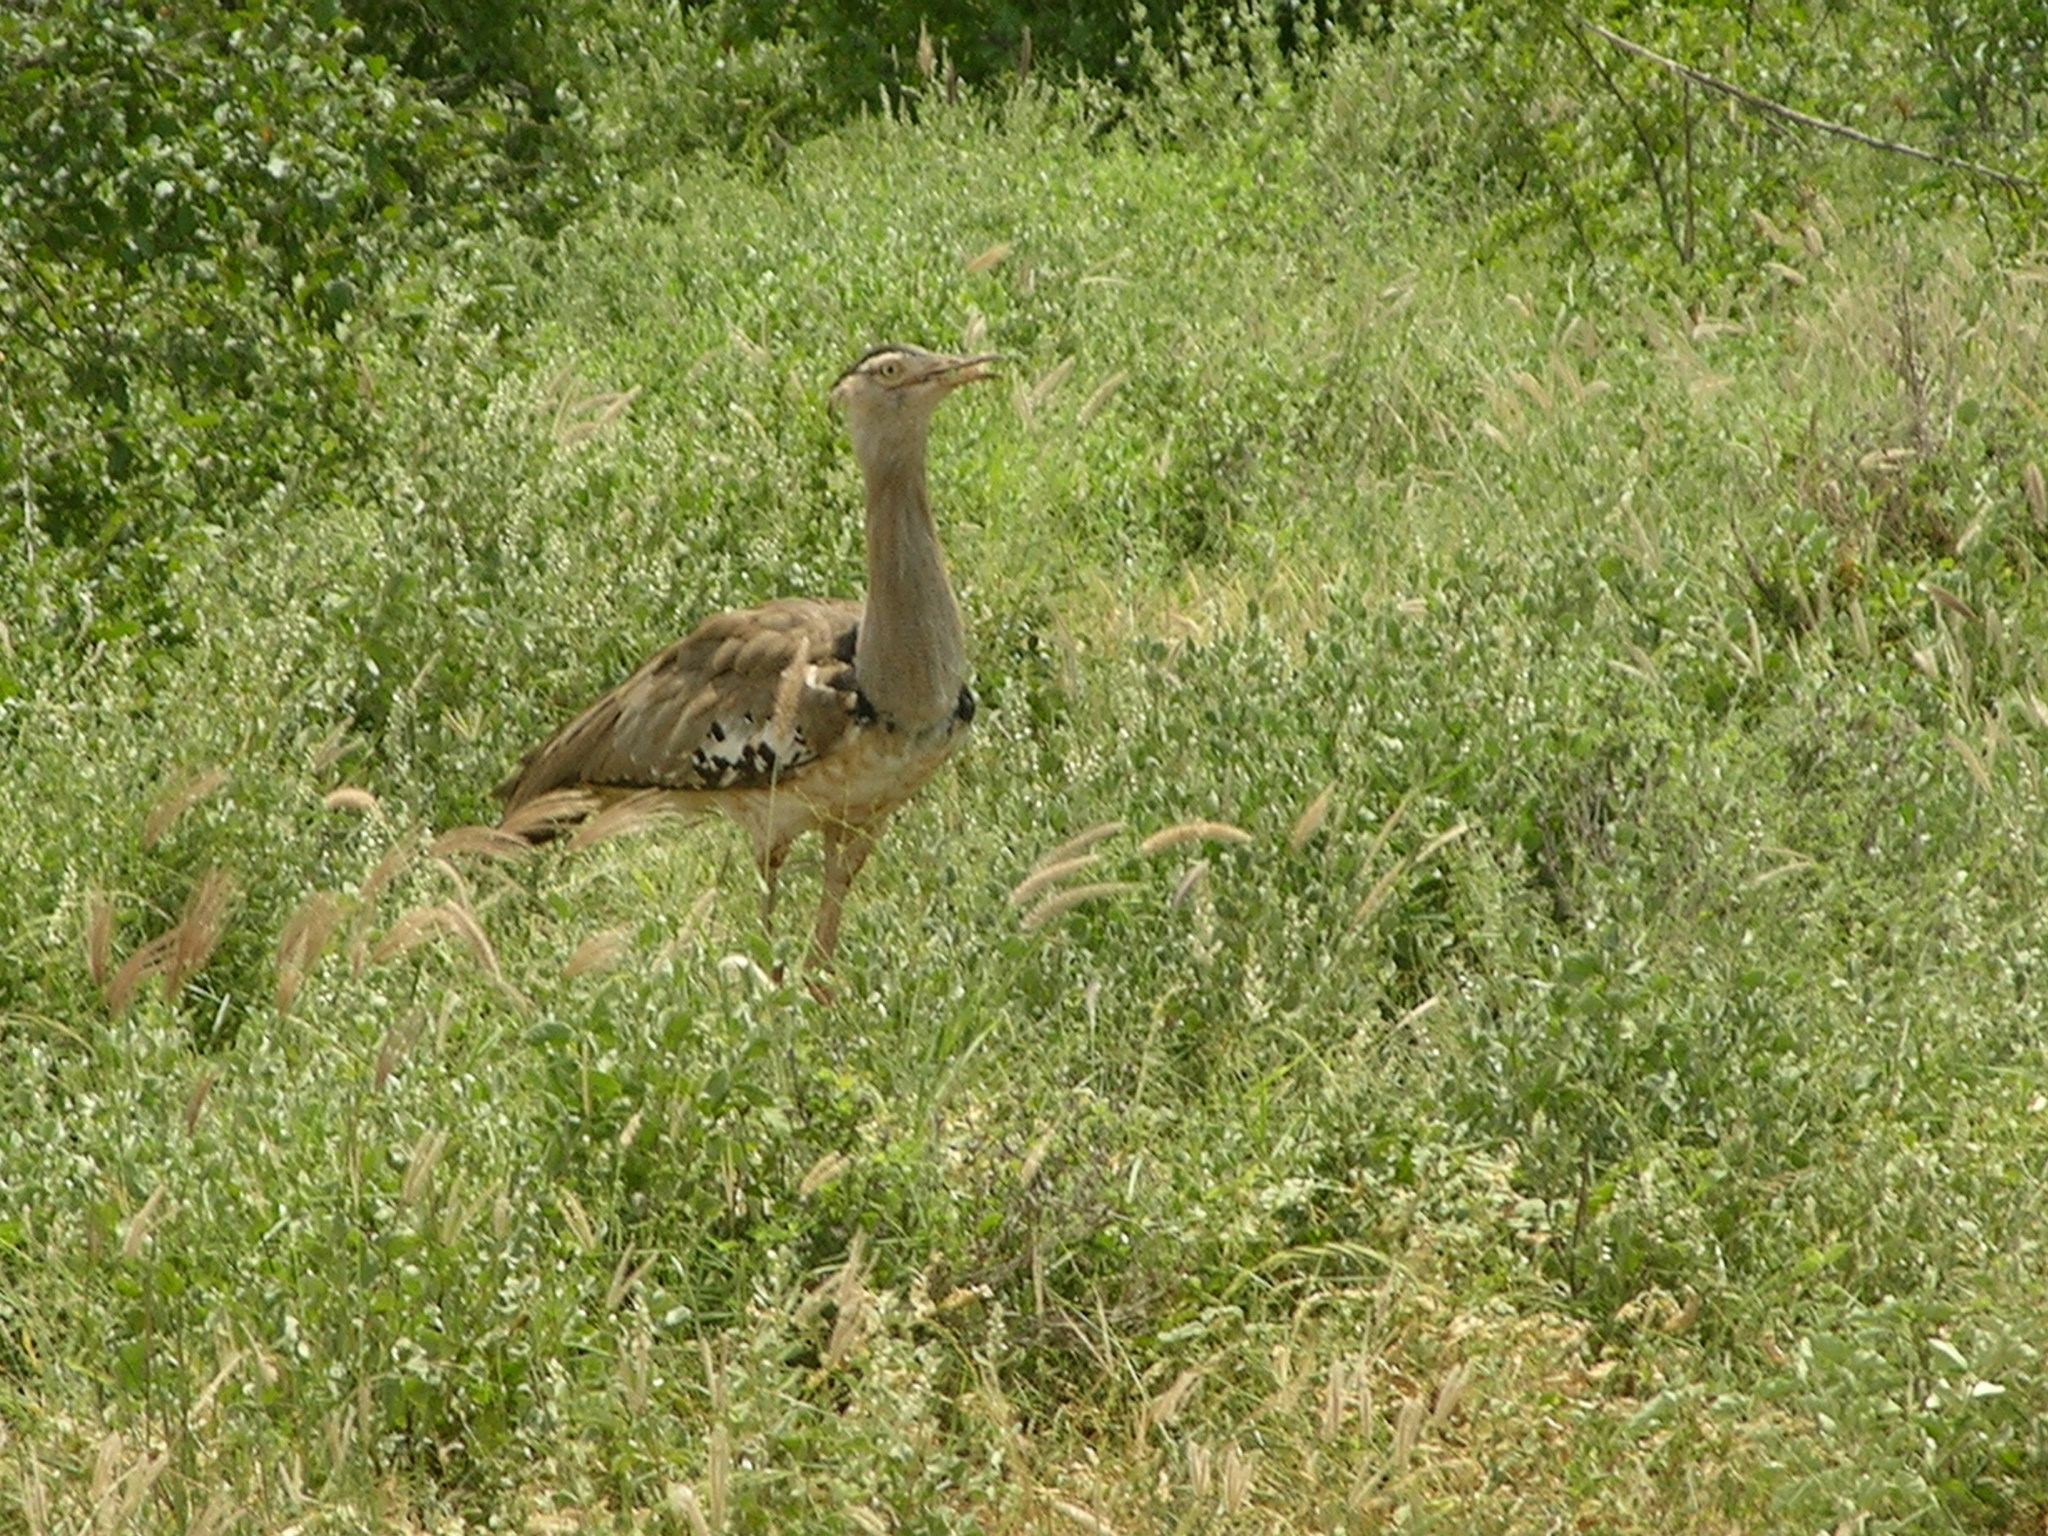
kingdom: Animalia
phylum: Chordata
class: Aves
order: Otidiformes
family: Otididae
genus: Ardeotis
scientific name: Ardeotis kori
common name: Kori bustard
